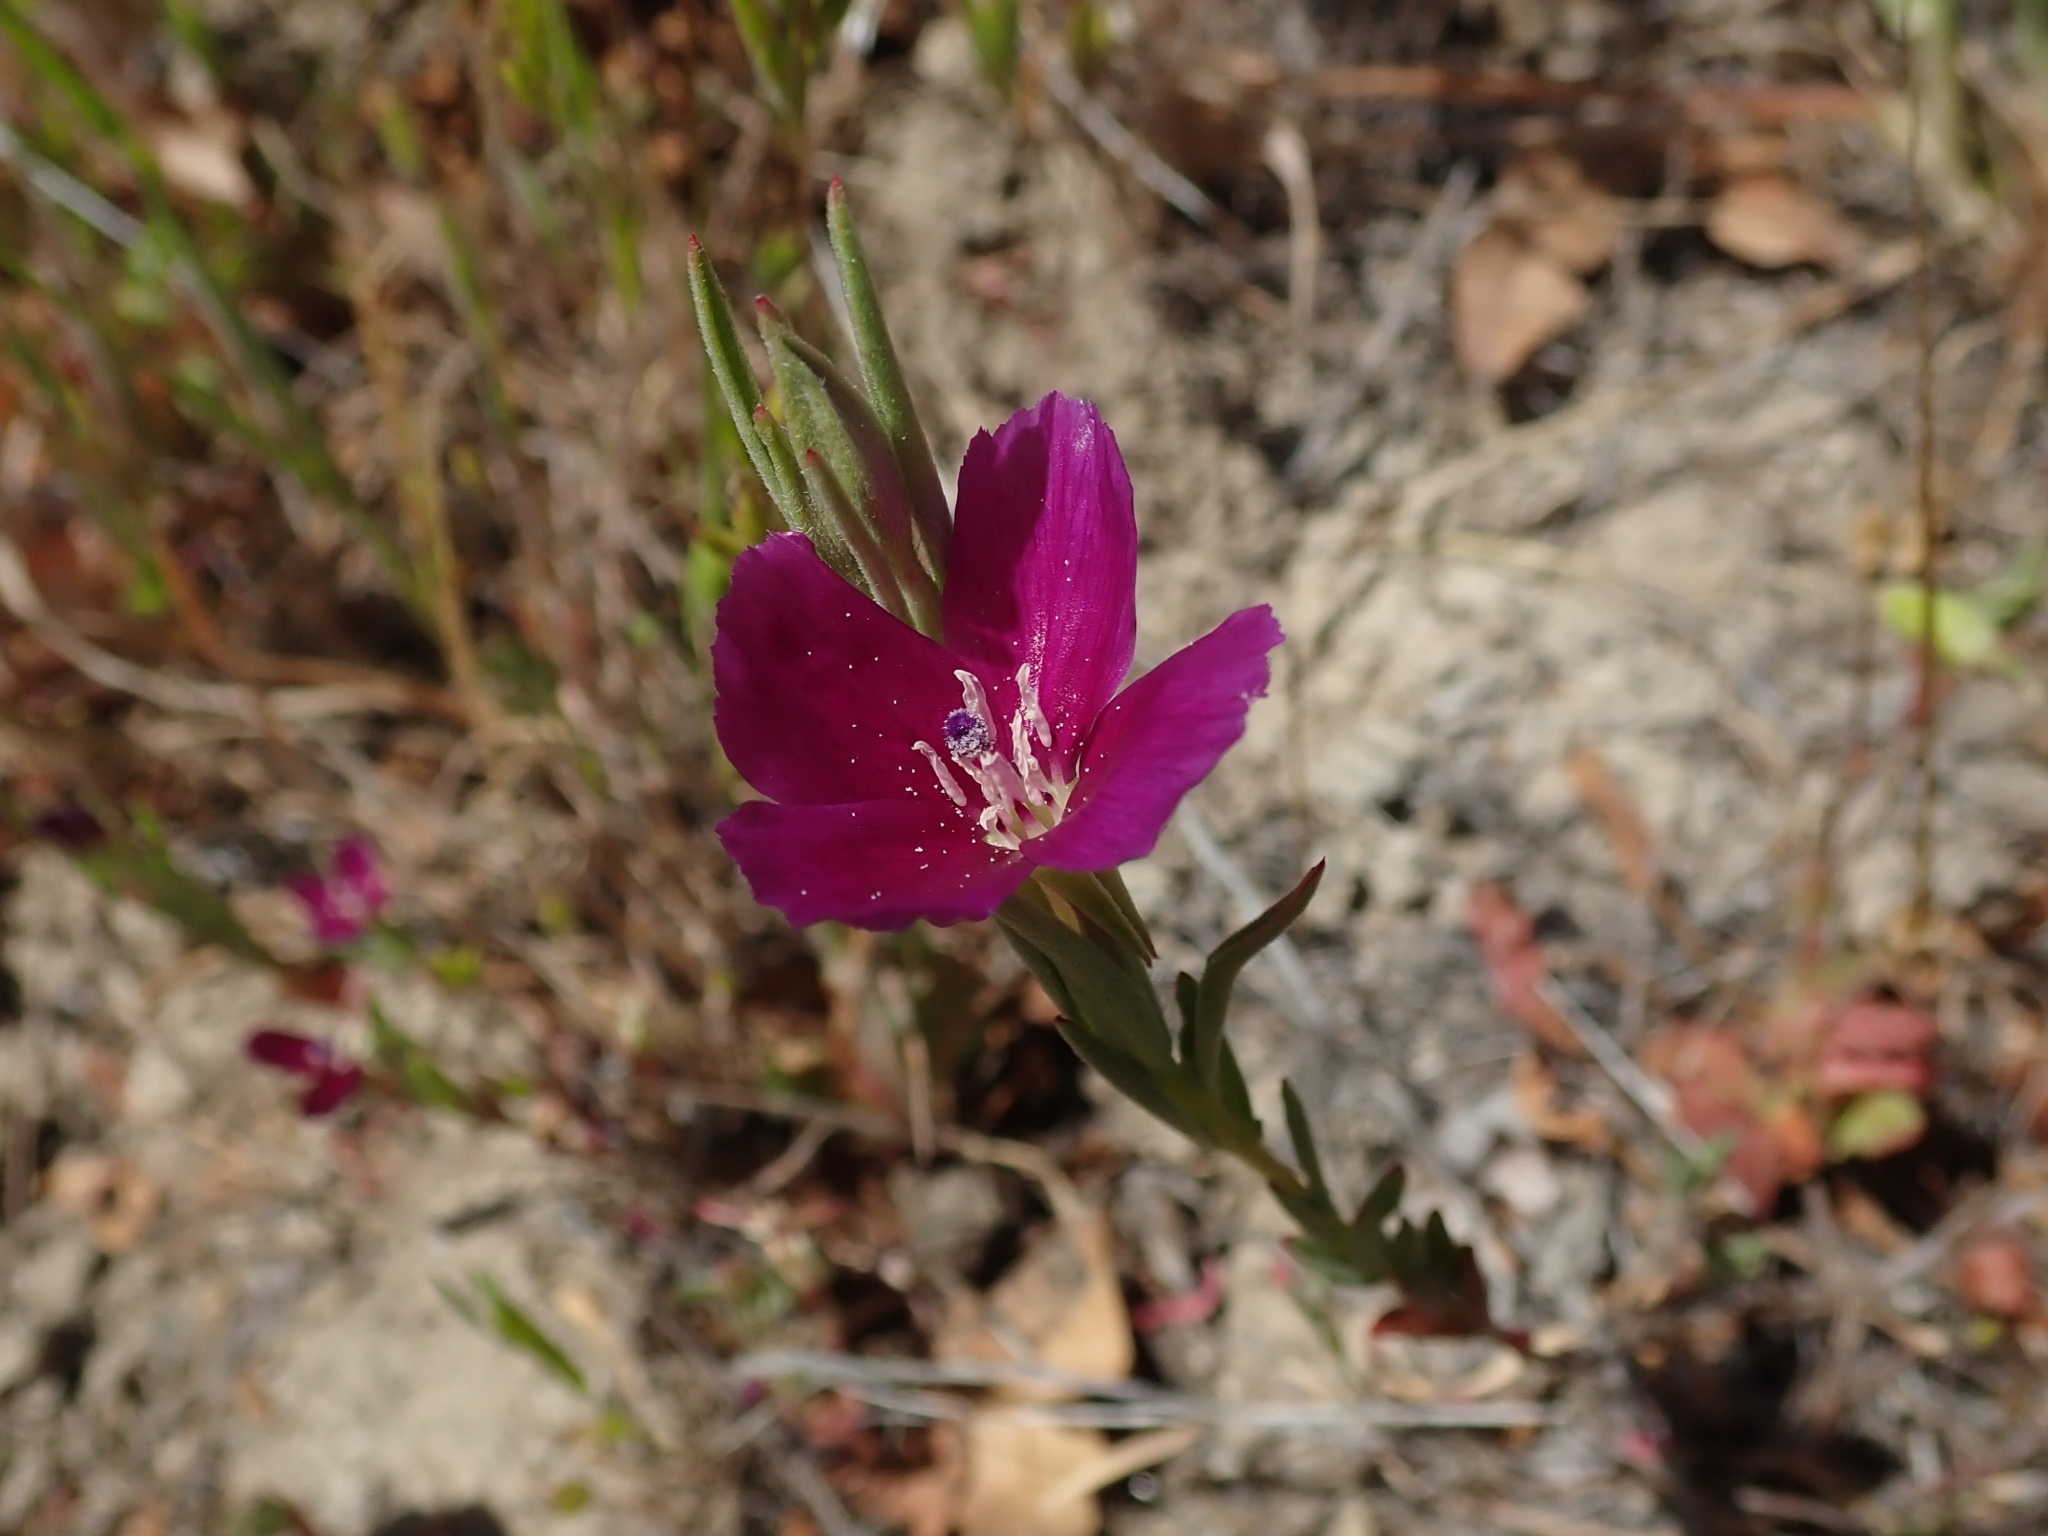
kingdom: Plantae
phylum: Tracheophyta
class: Magnoliopsida
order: Myrtales
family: Onagraceae
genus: Clarkia
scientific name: Clarkia purpurea
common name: Purple clarkia
